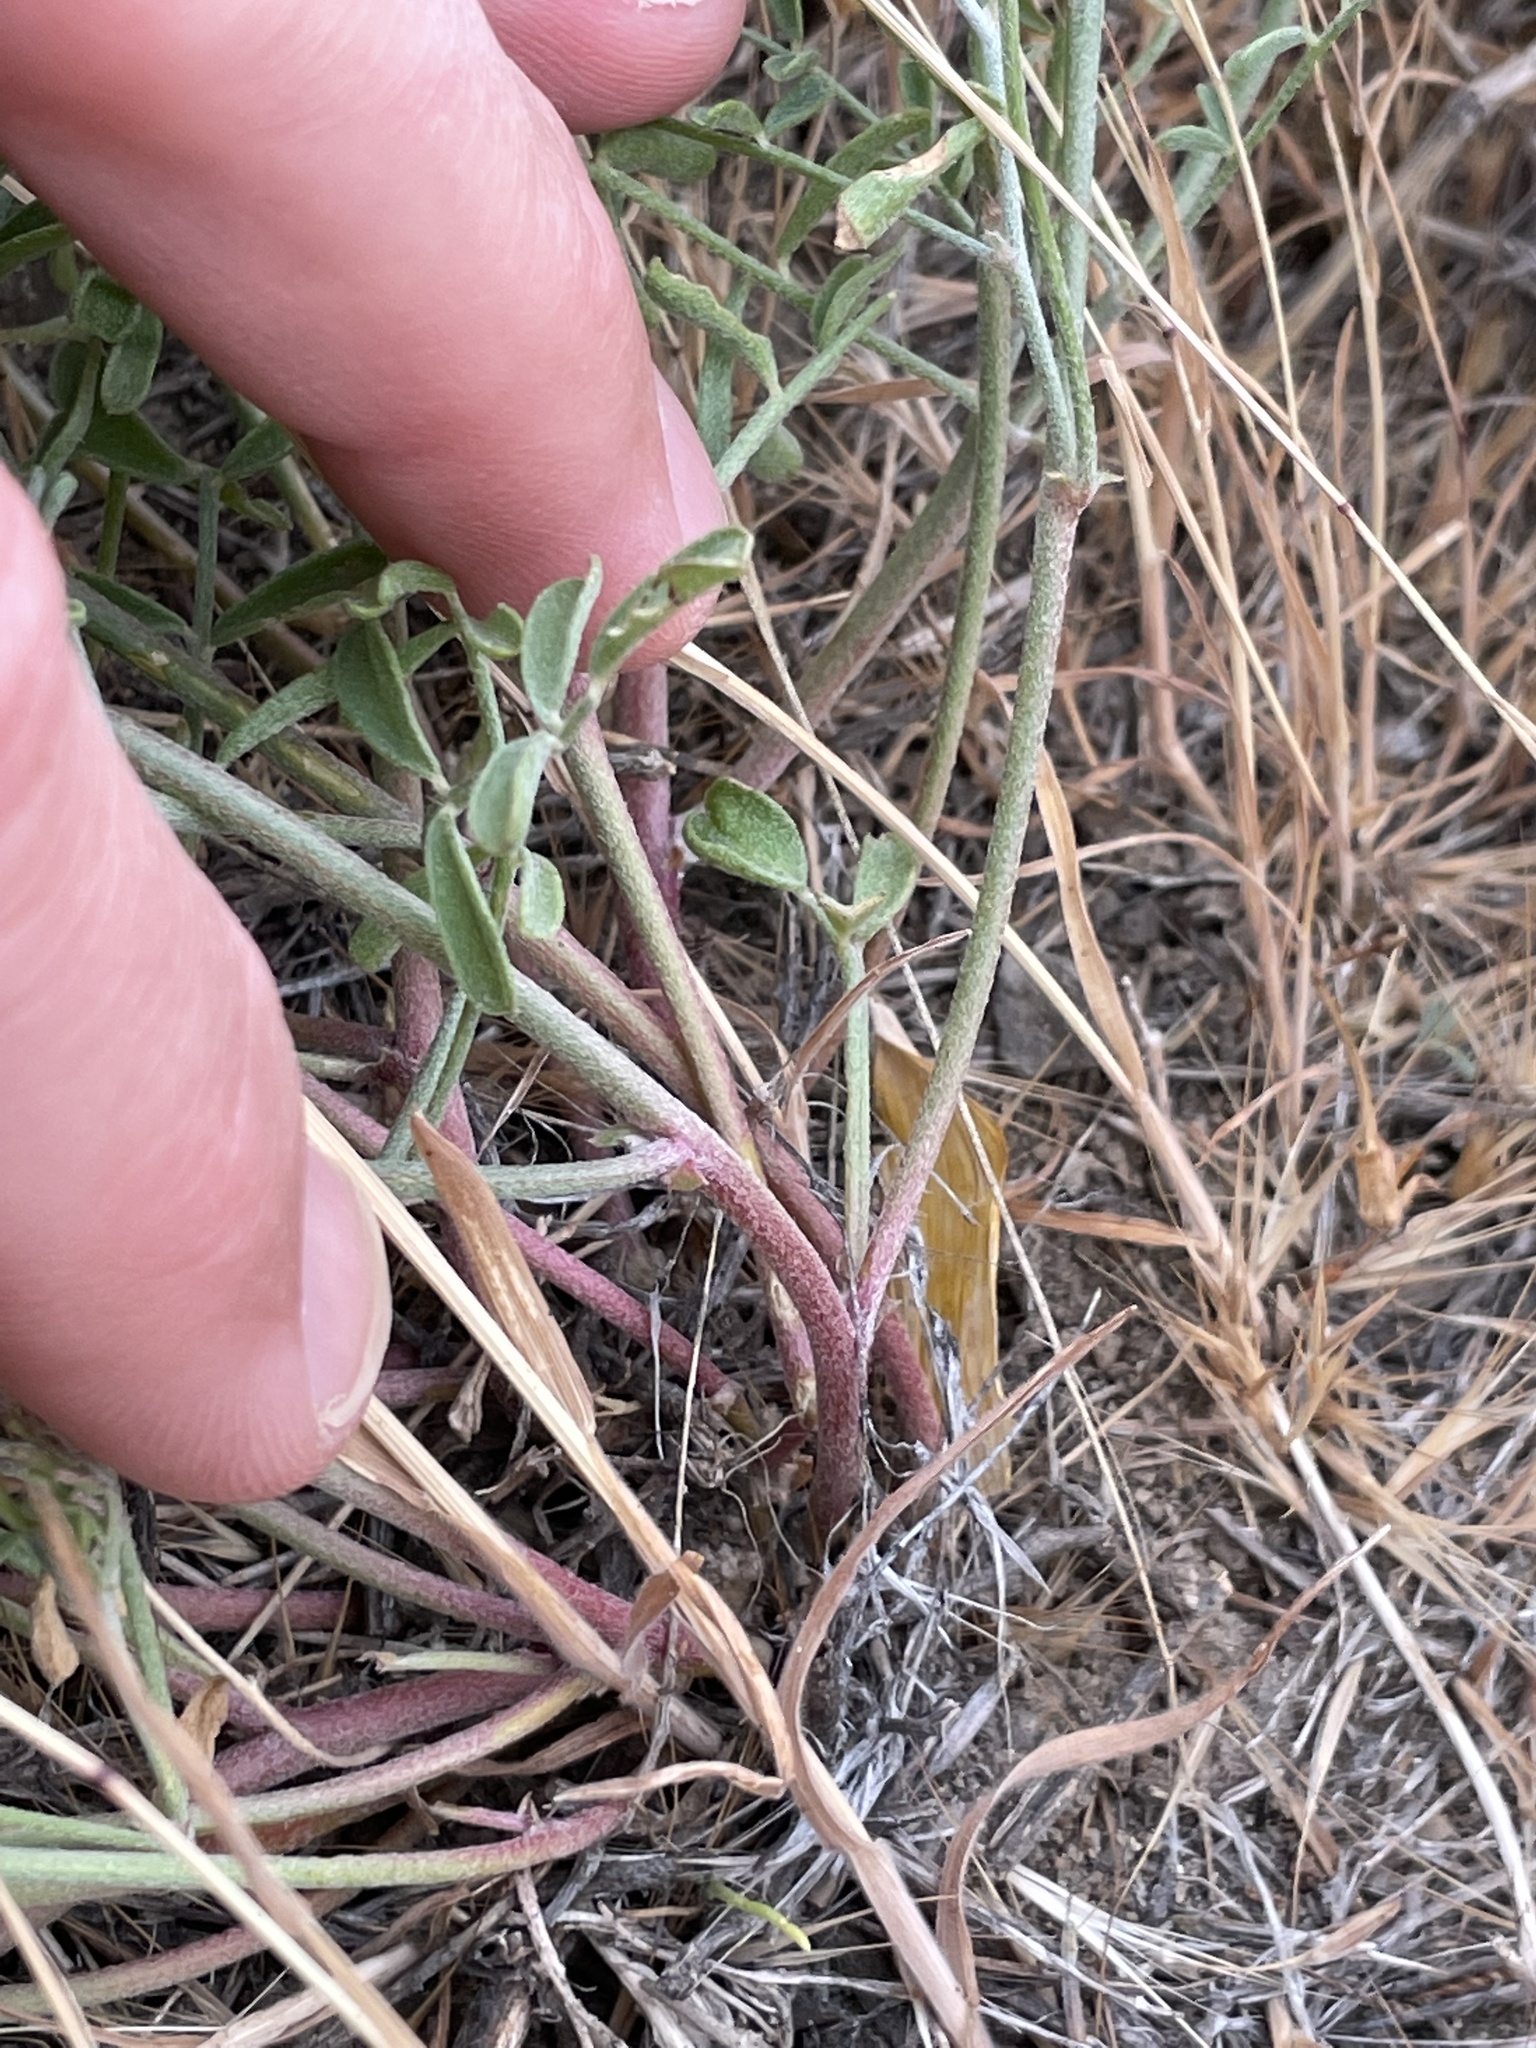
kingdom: Plantae
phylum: Tracheophyta
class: Magnoliopsida
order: Fabales
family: Fabaceae
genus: Astragalus
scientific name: Astragalus speirocarpus
